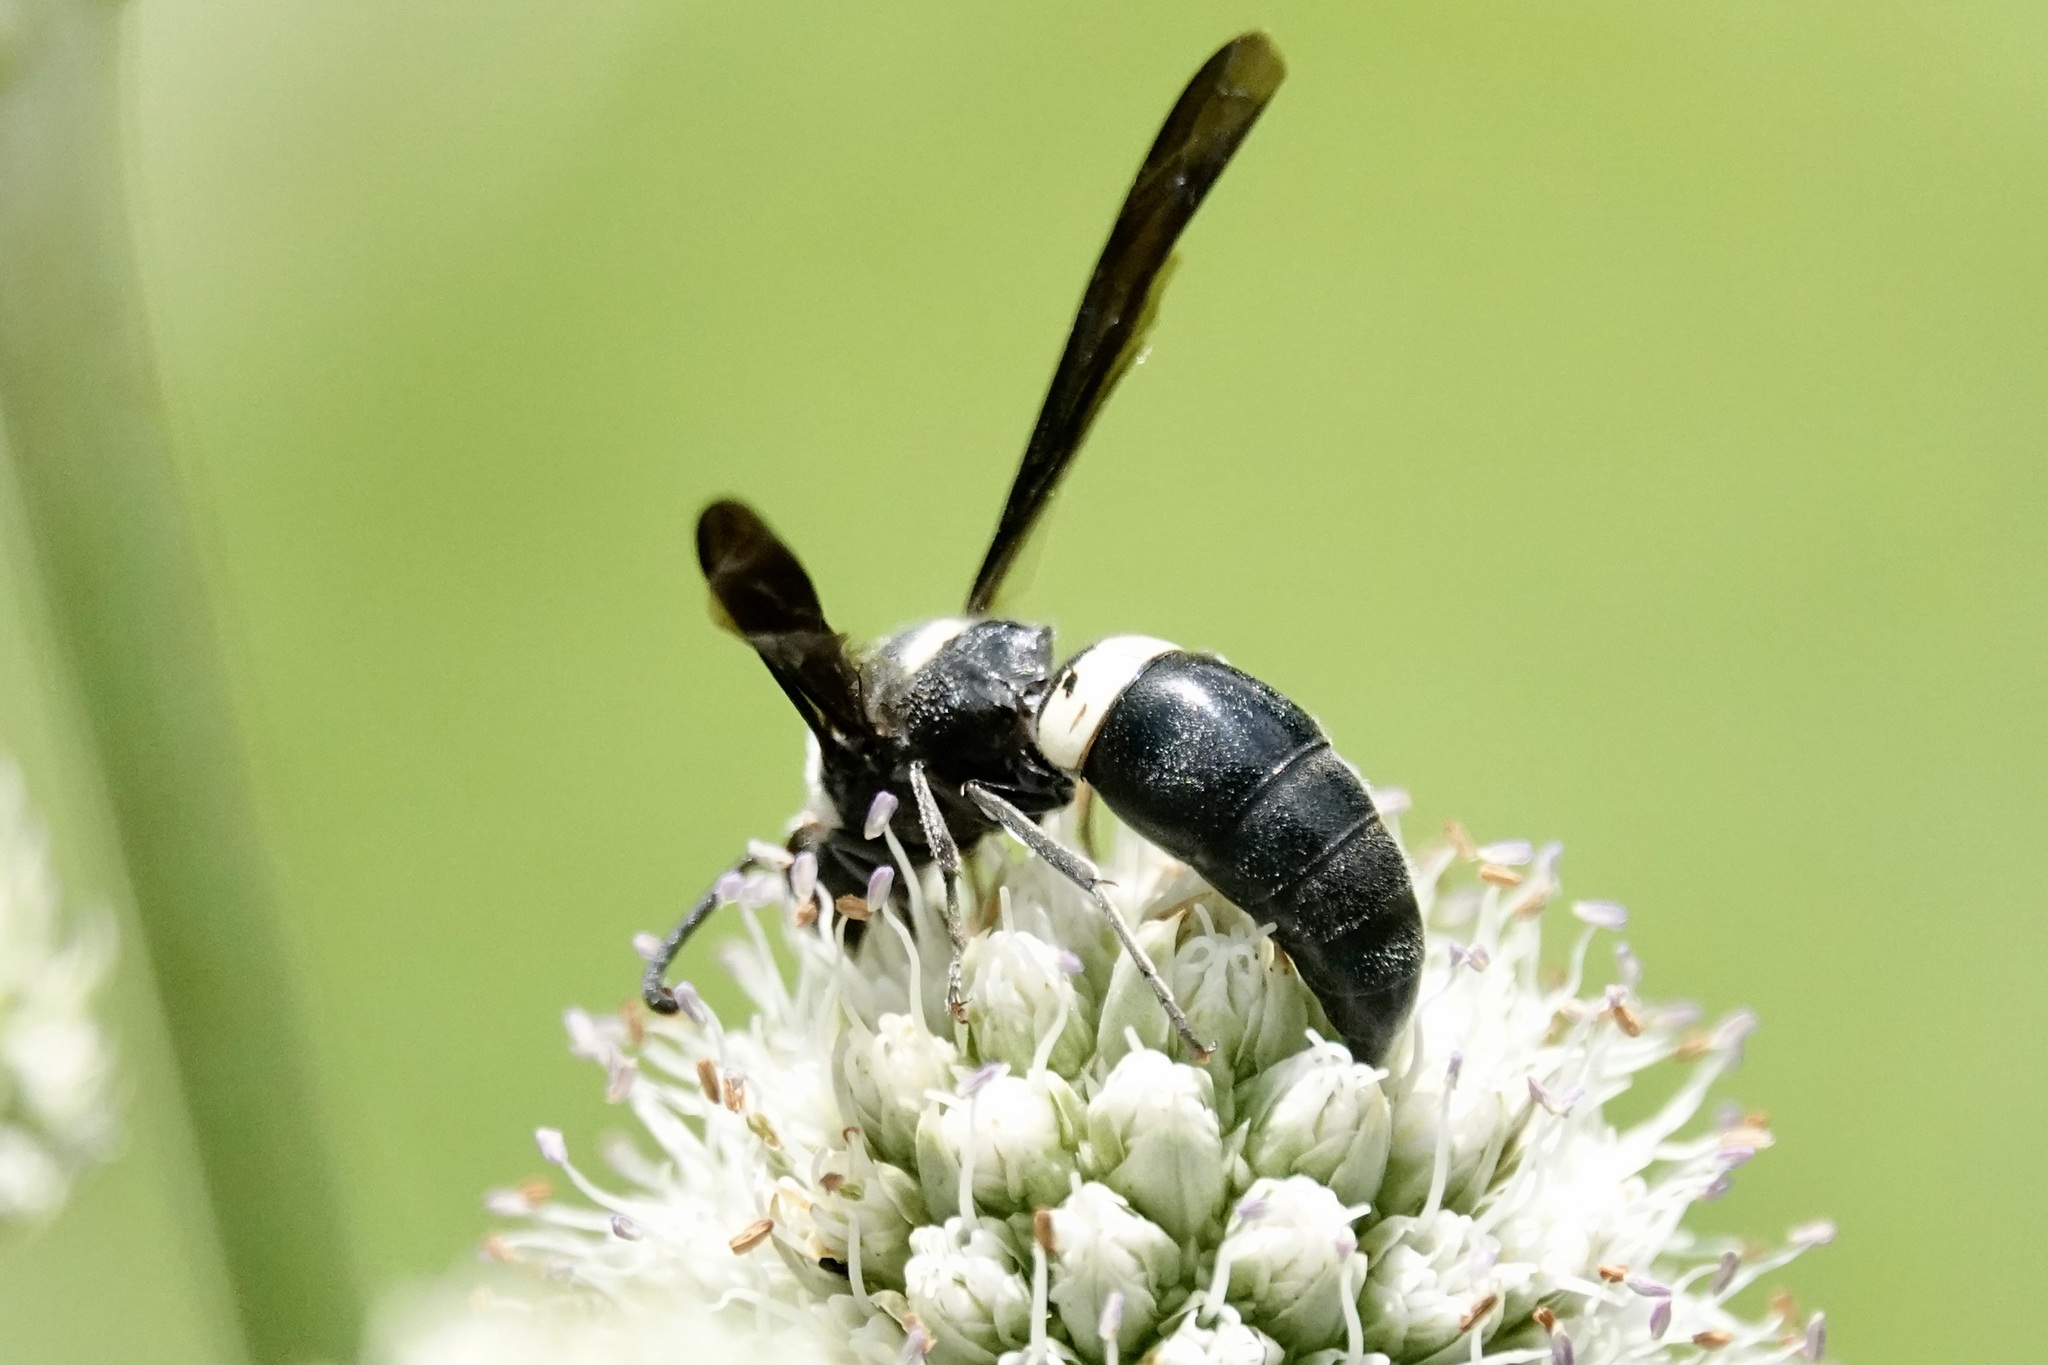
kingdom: Animalia
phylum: Arthropoda
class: Insecta
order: Hymenoptera
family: Eumenidae
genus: Monobia
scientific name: Monobia quadridens
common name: Four-toothed mason wasp
